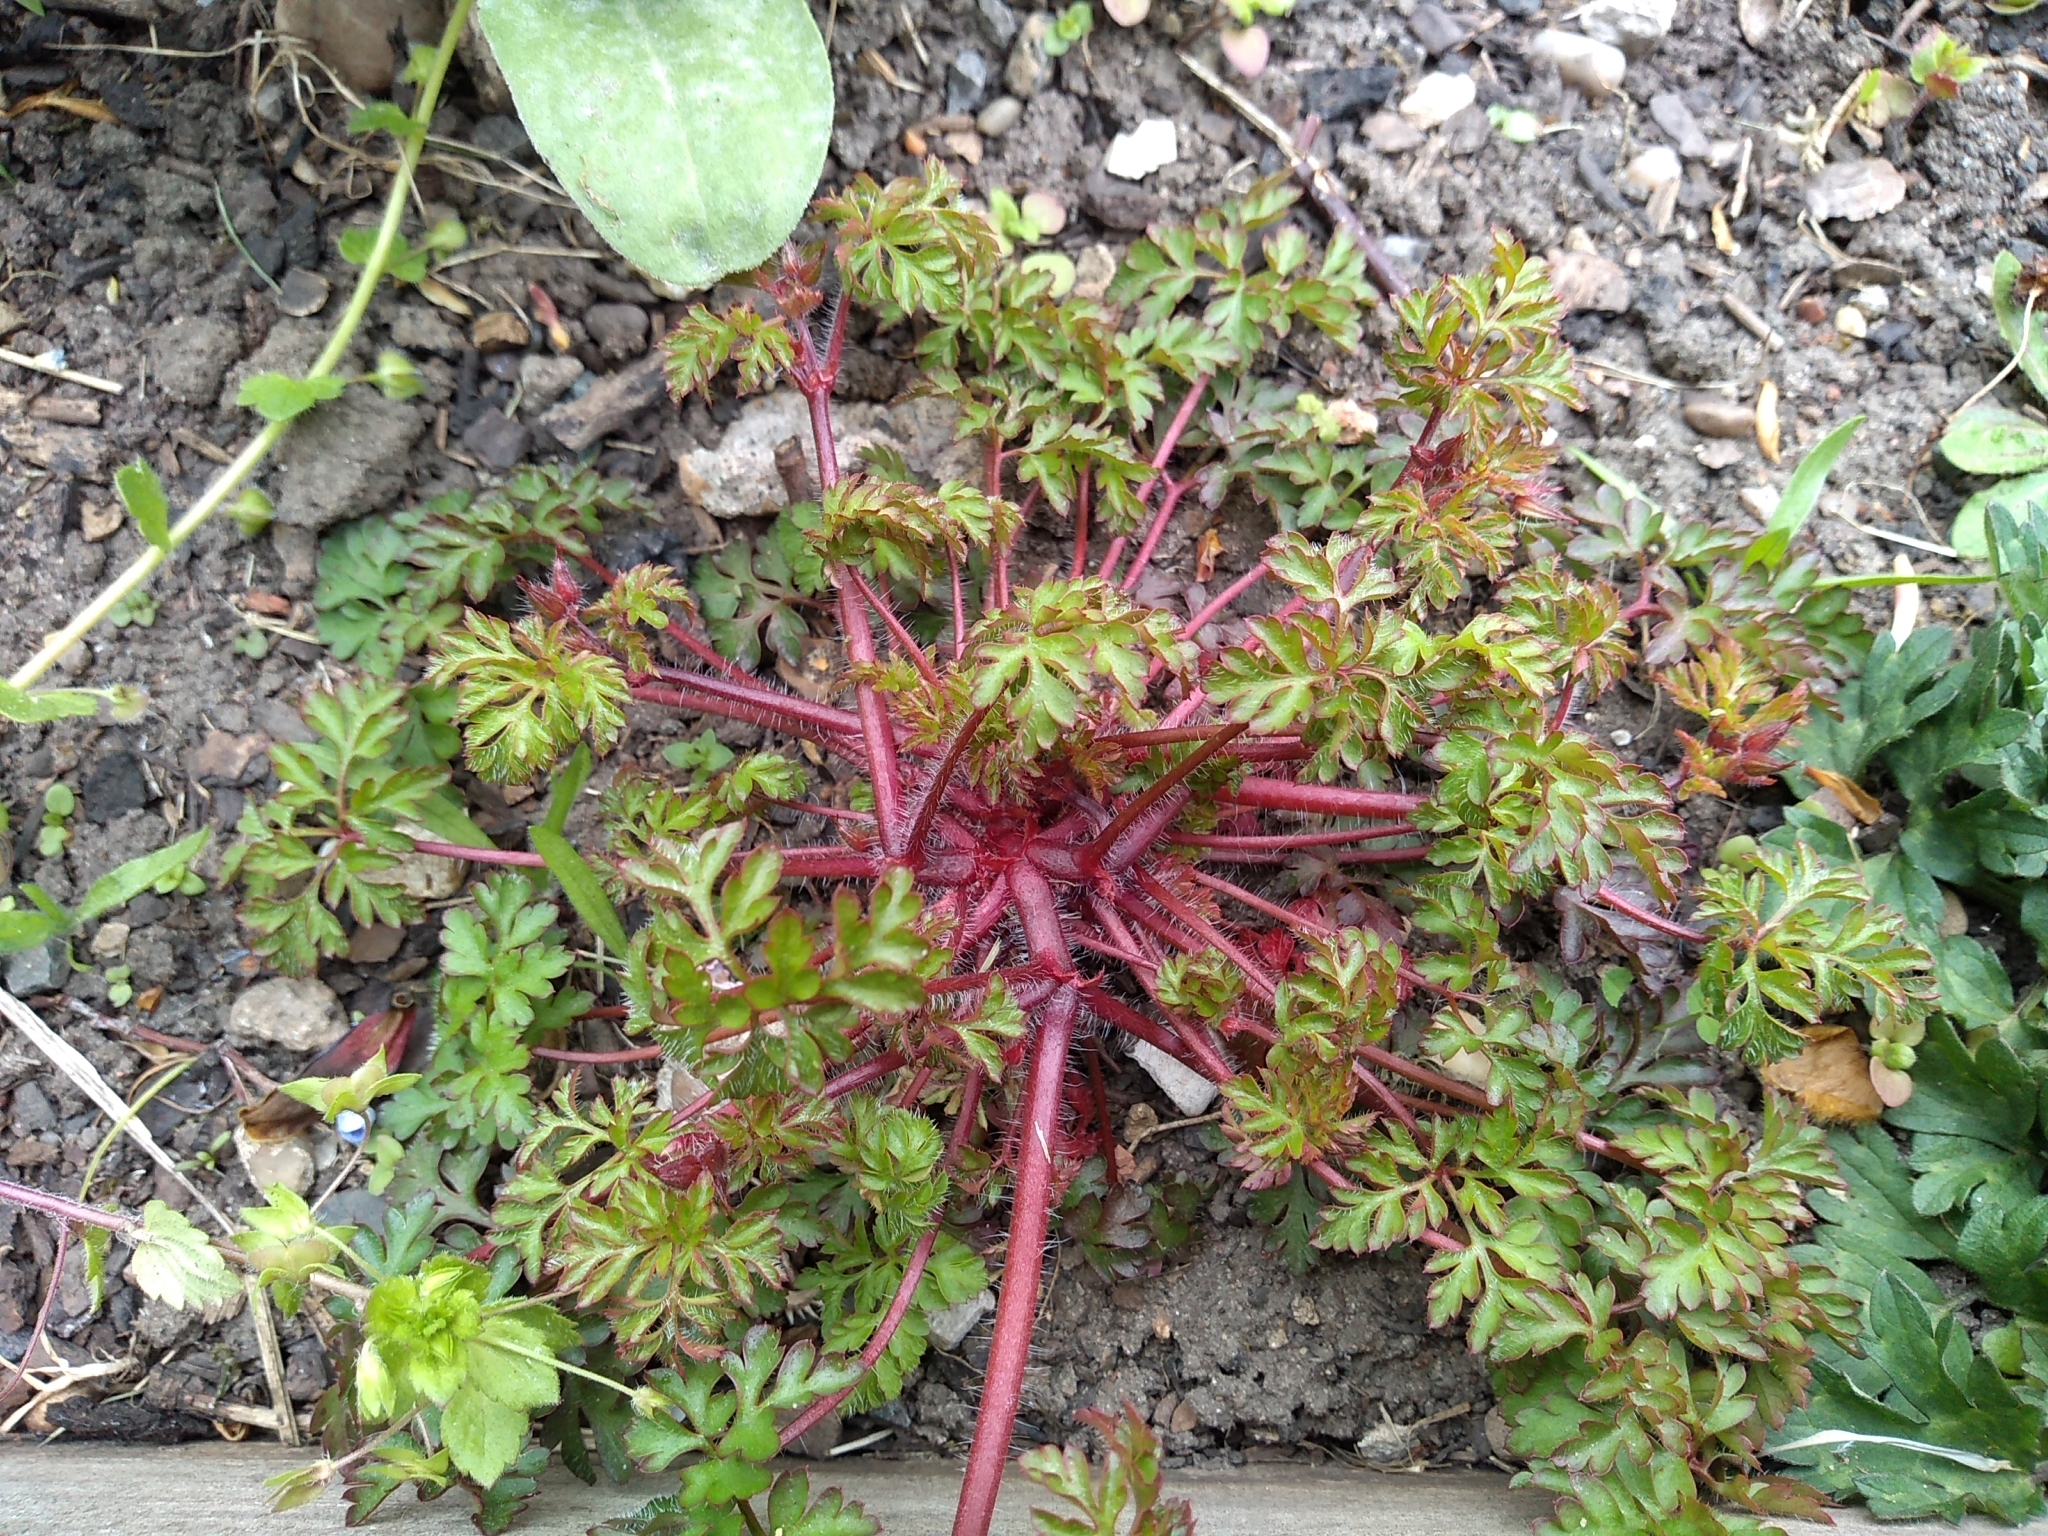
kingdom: Plantae
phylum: Tracheophyta
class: Magnoliopsida
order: Geraniales
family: Geraniaceae
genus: Geranium
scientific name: Geranium robertianum
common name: Herb-robert
